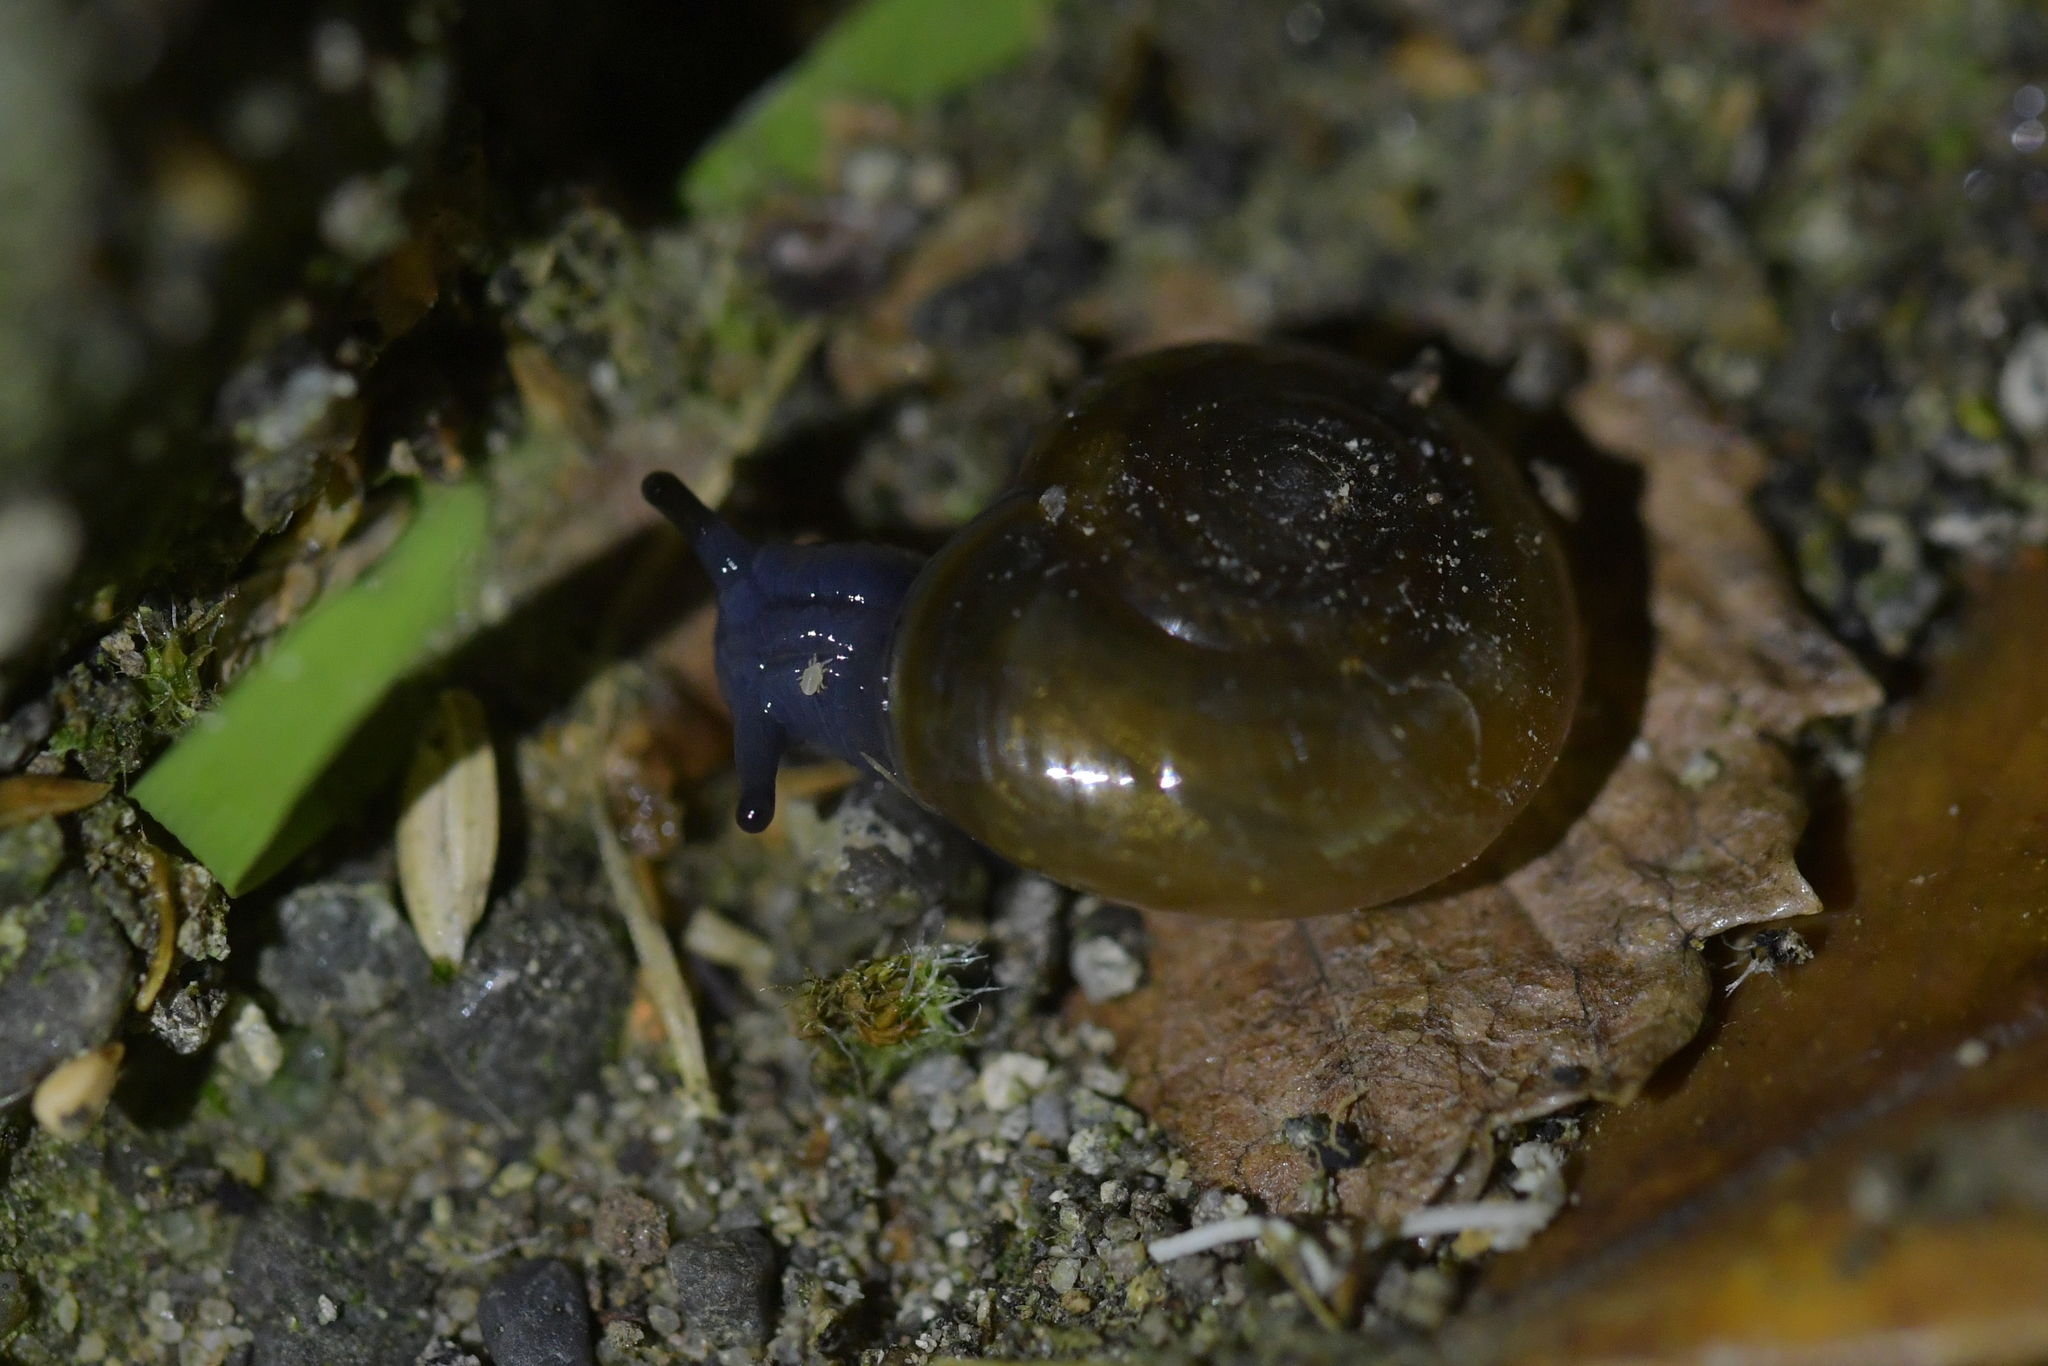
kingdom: Animalia
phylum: Arthropoda
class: Arachnida
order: Trombidiformes
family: Ereynetidae
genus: Riccardoella
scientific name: Riccardoella limacum
